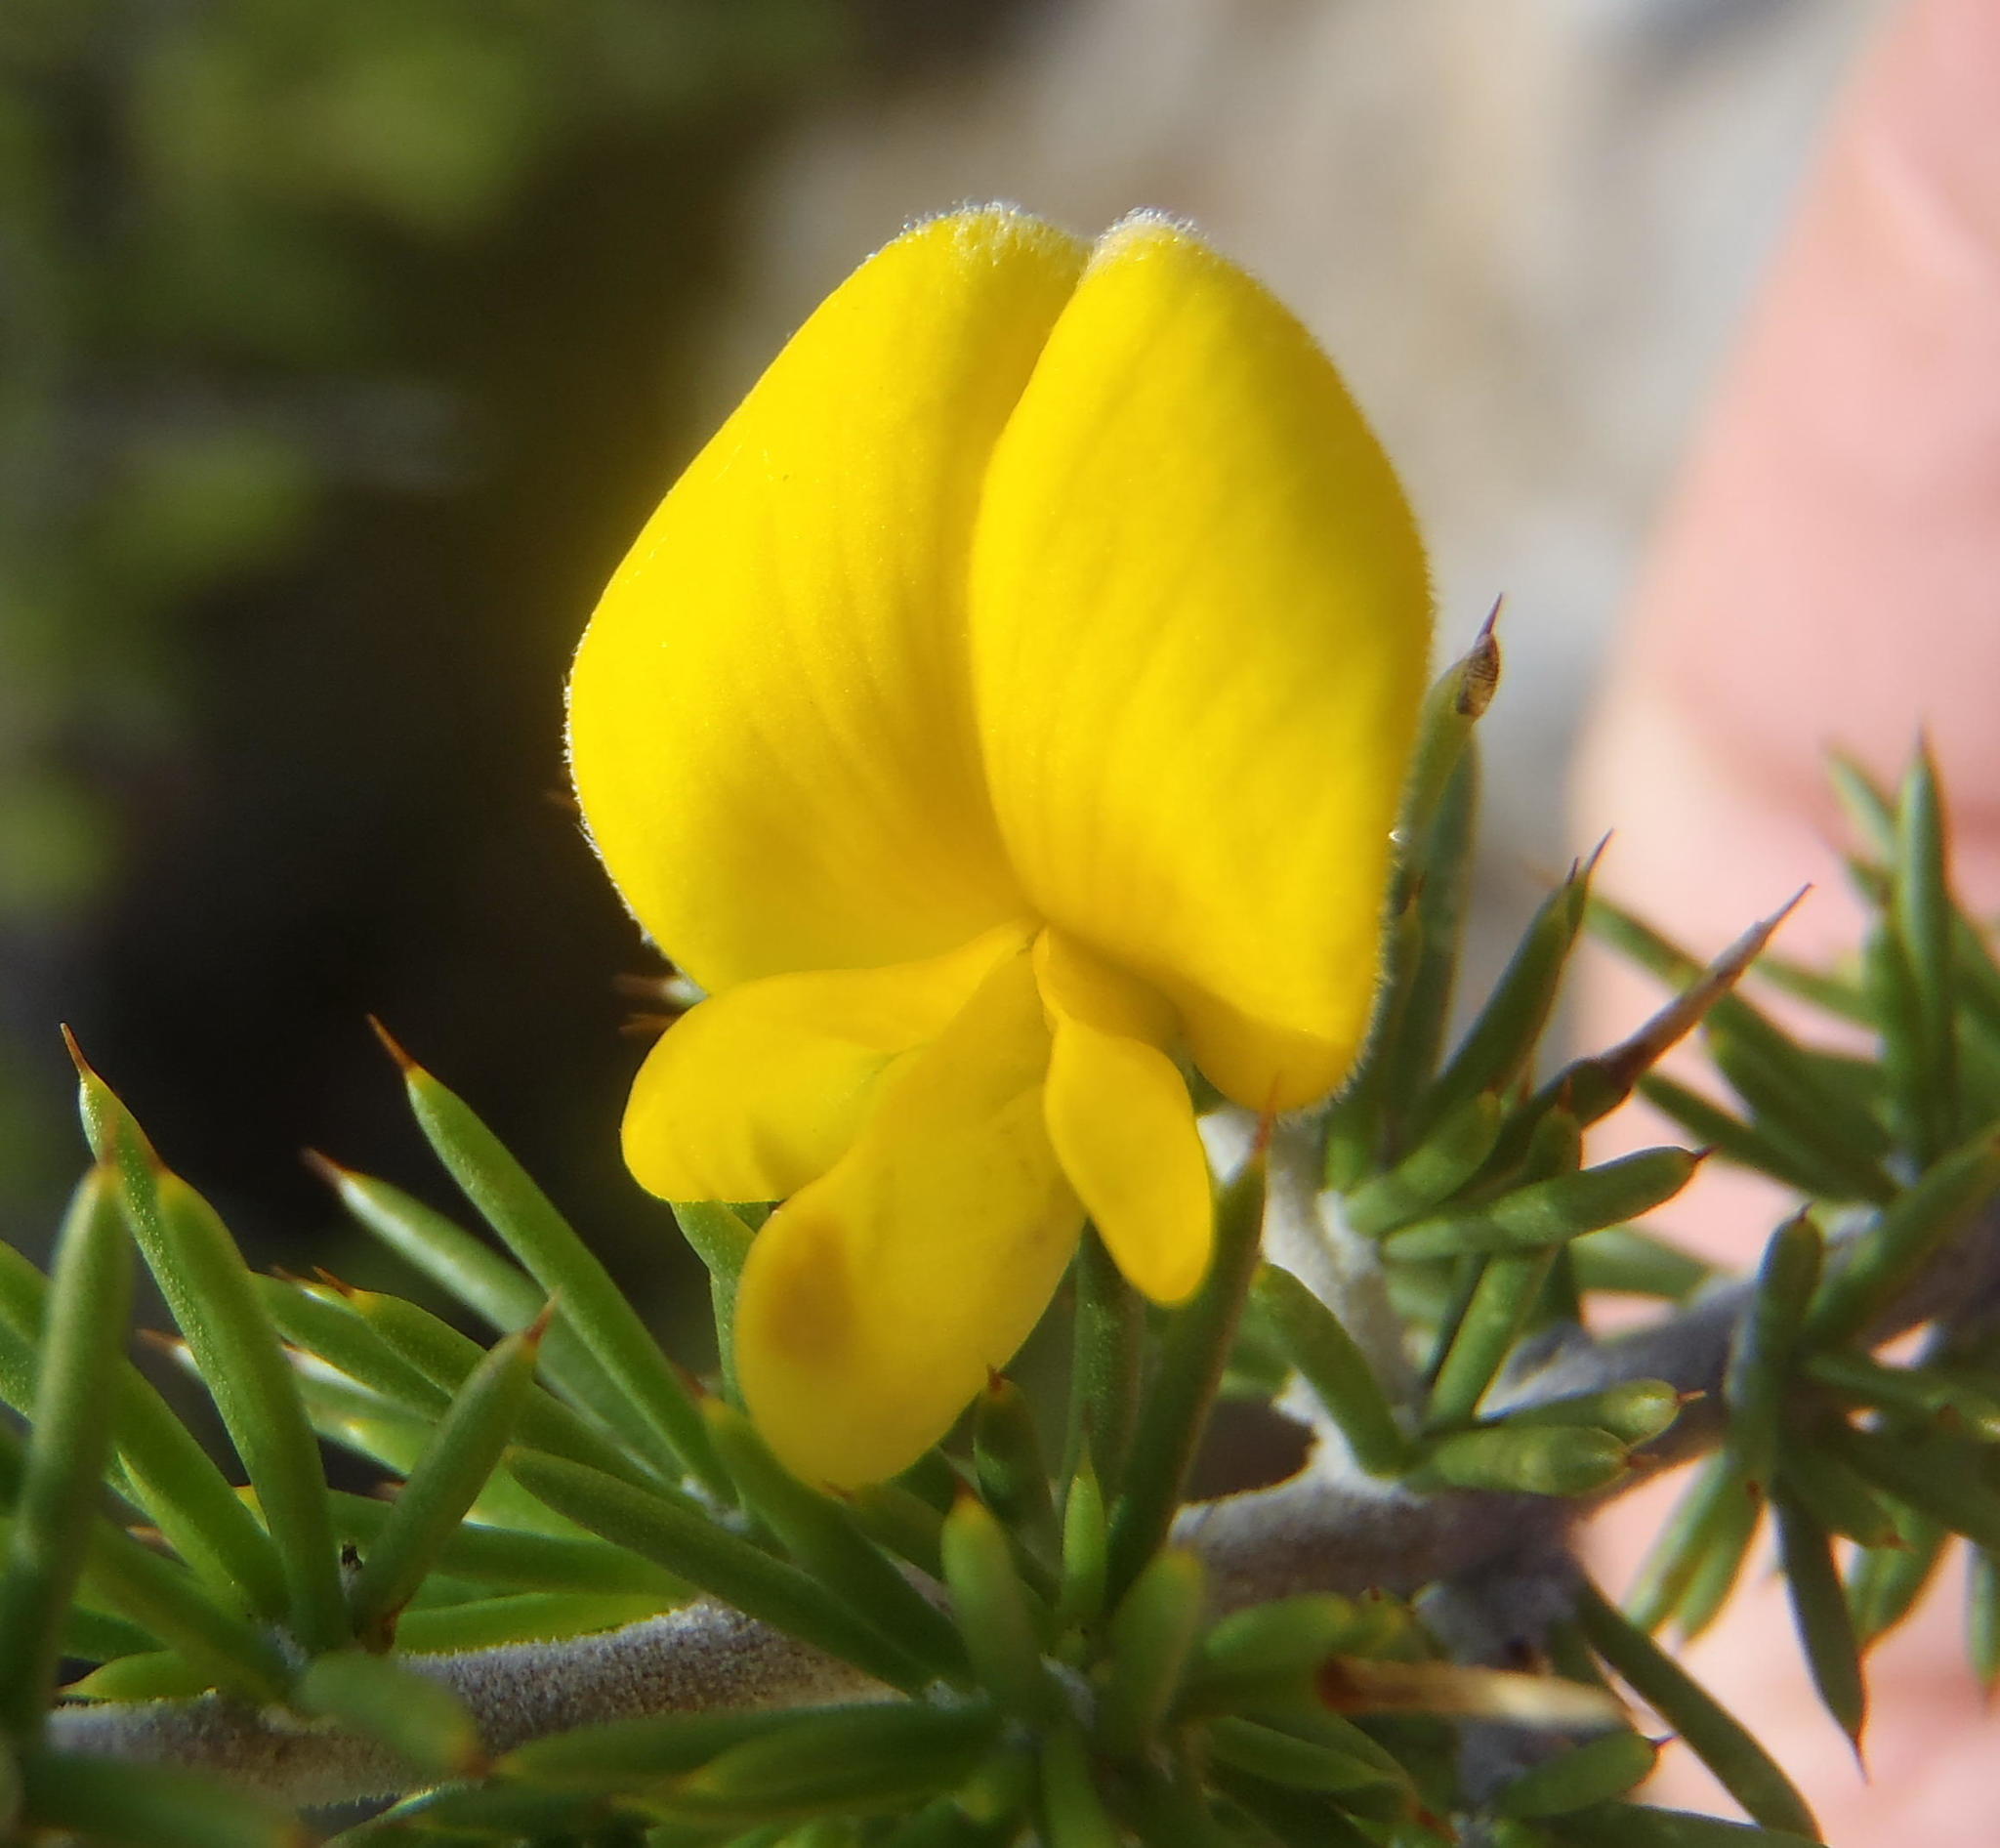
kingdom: Plantae
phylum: Tracheophyta
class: Magnoliopsida
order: Fabales
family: Fabaceae
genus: Aspalathus
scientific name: Aspalathus hirta
